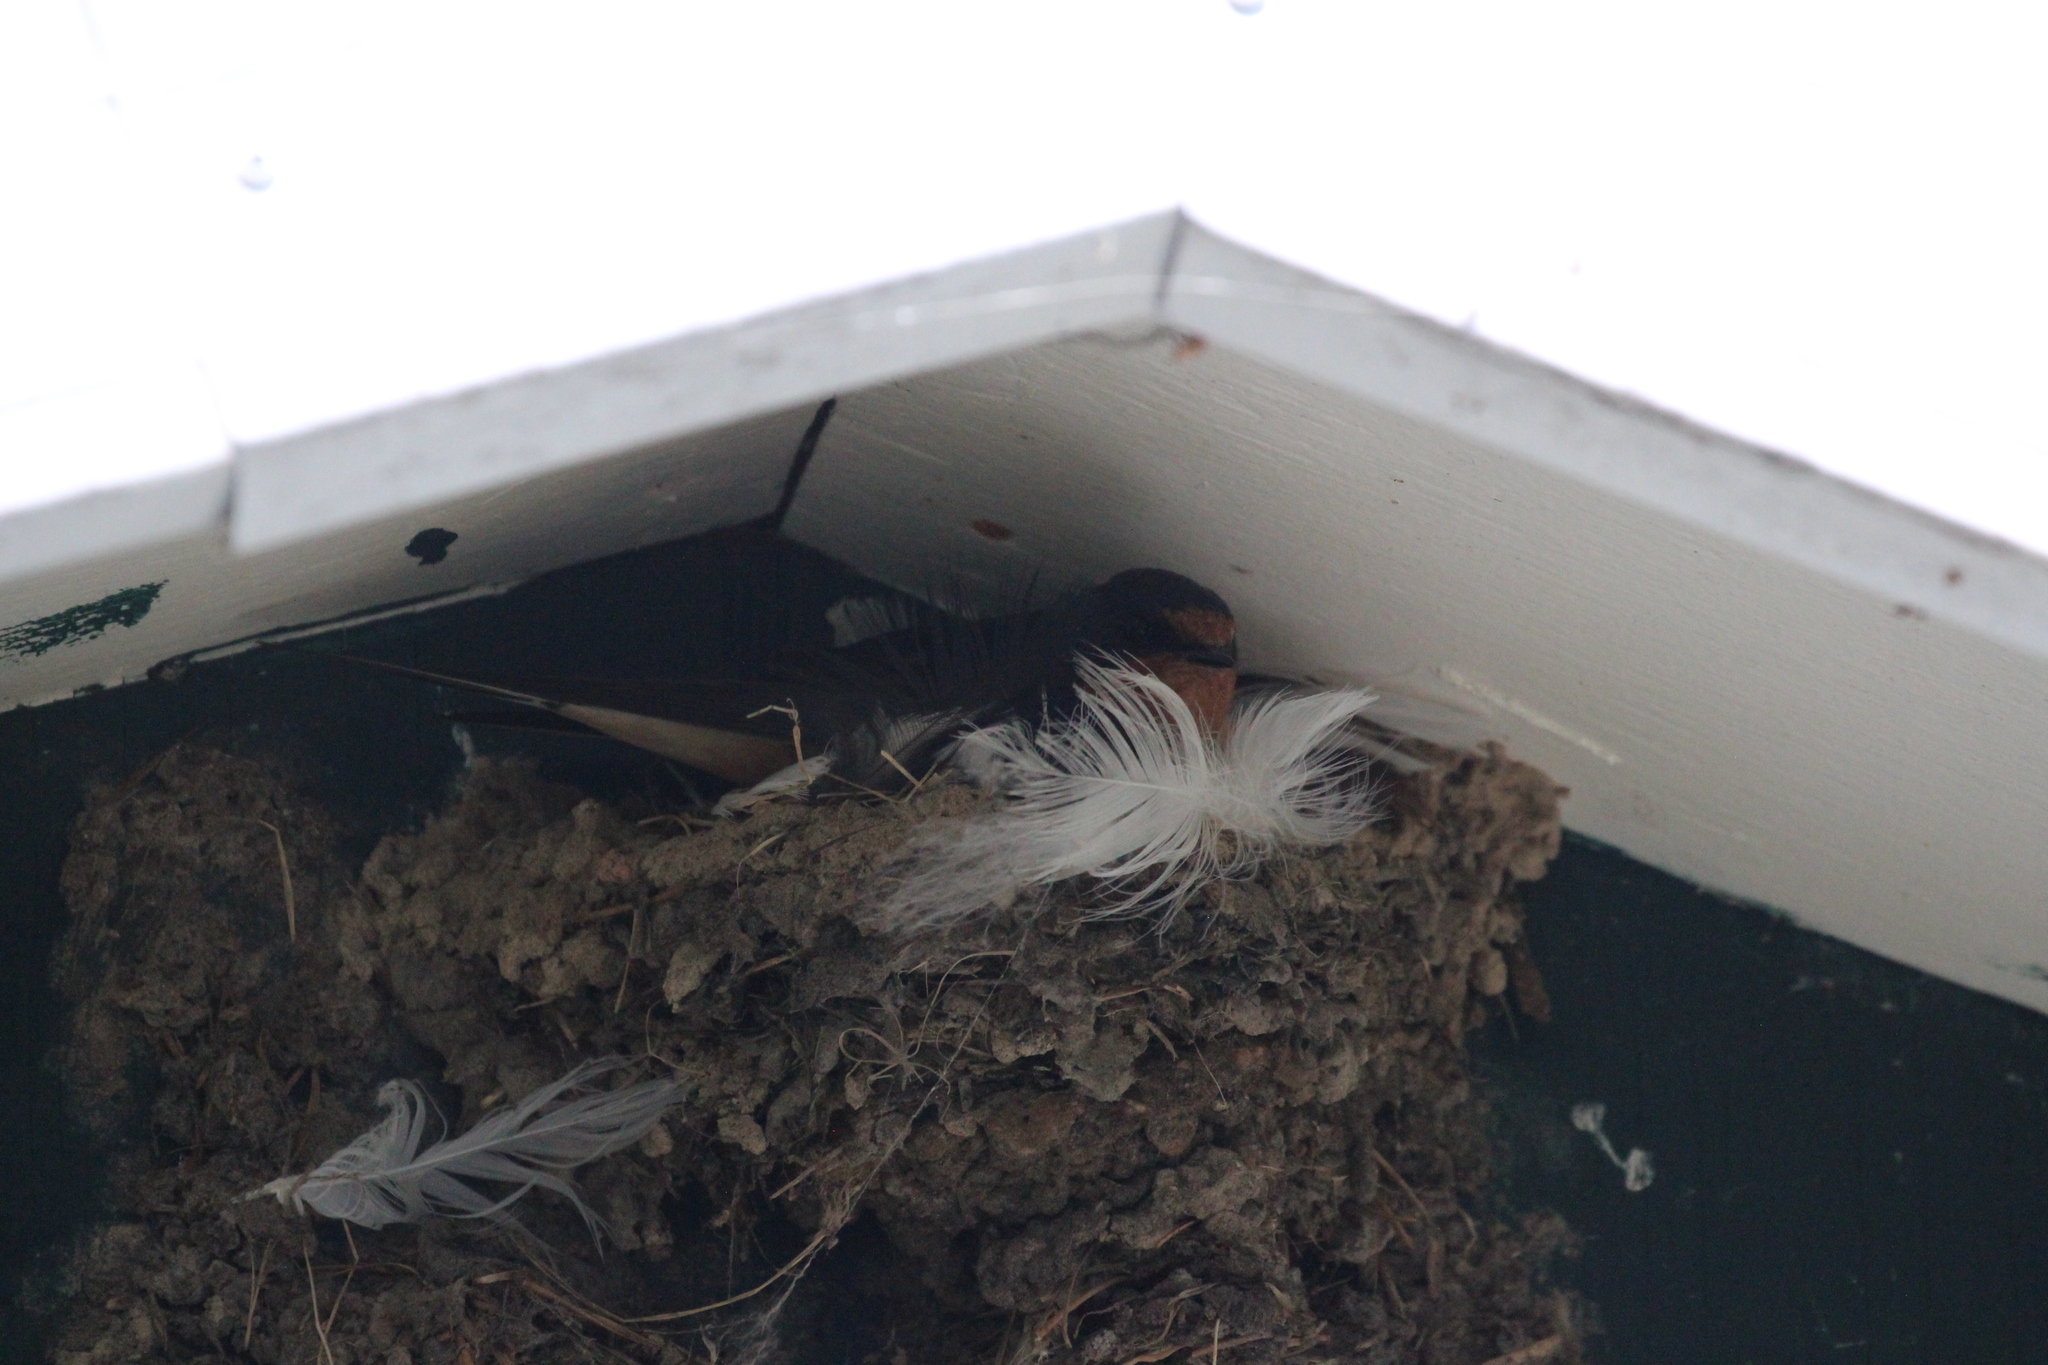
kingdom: Animalia
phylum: Chordata
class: Aves
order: Passeriformes
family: Hirundinidae
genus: Hirundo
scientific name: Hirundo rustica
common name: Barn swallow
